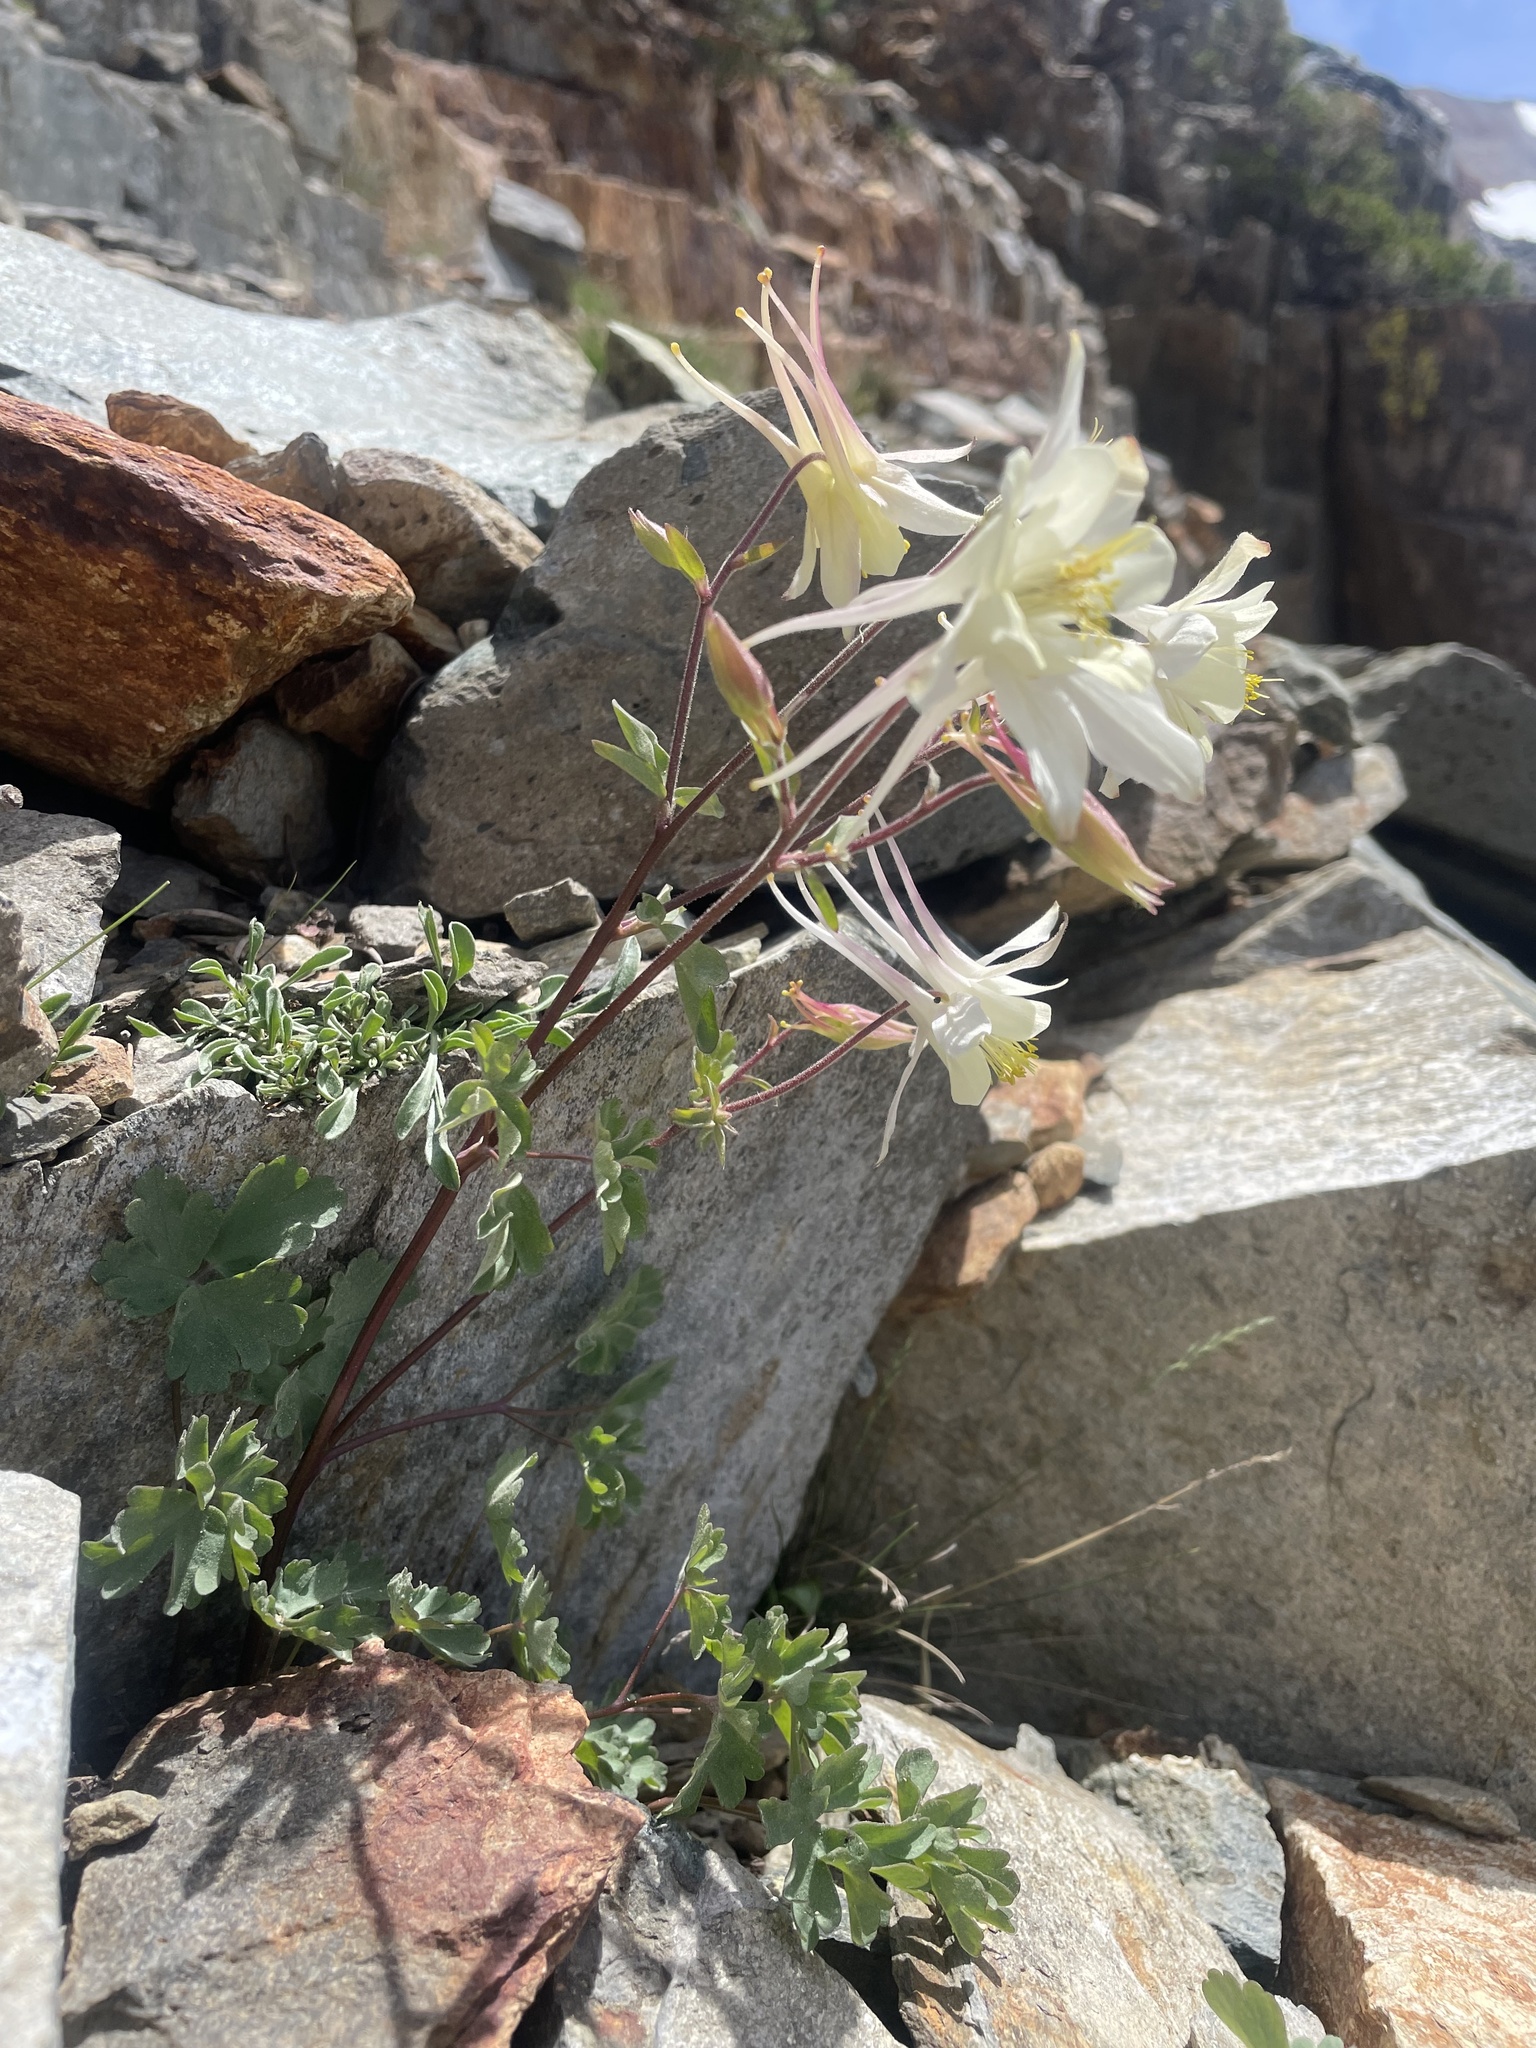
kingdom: Plantae
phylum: Tracheophyta
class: Magnoliopsida
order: Ranunculales
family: Ranunculaceae
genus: Aquilegia
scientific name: Aquilegia pubescens
